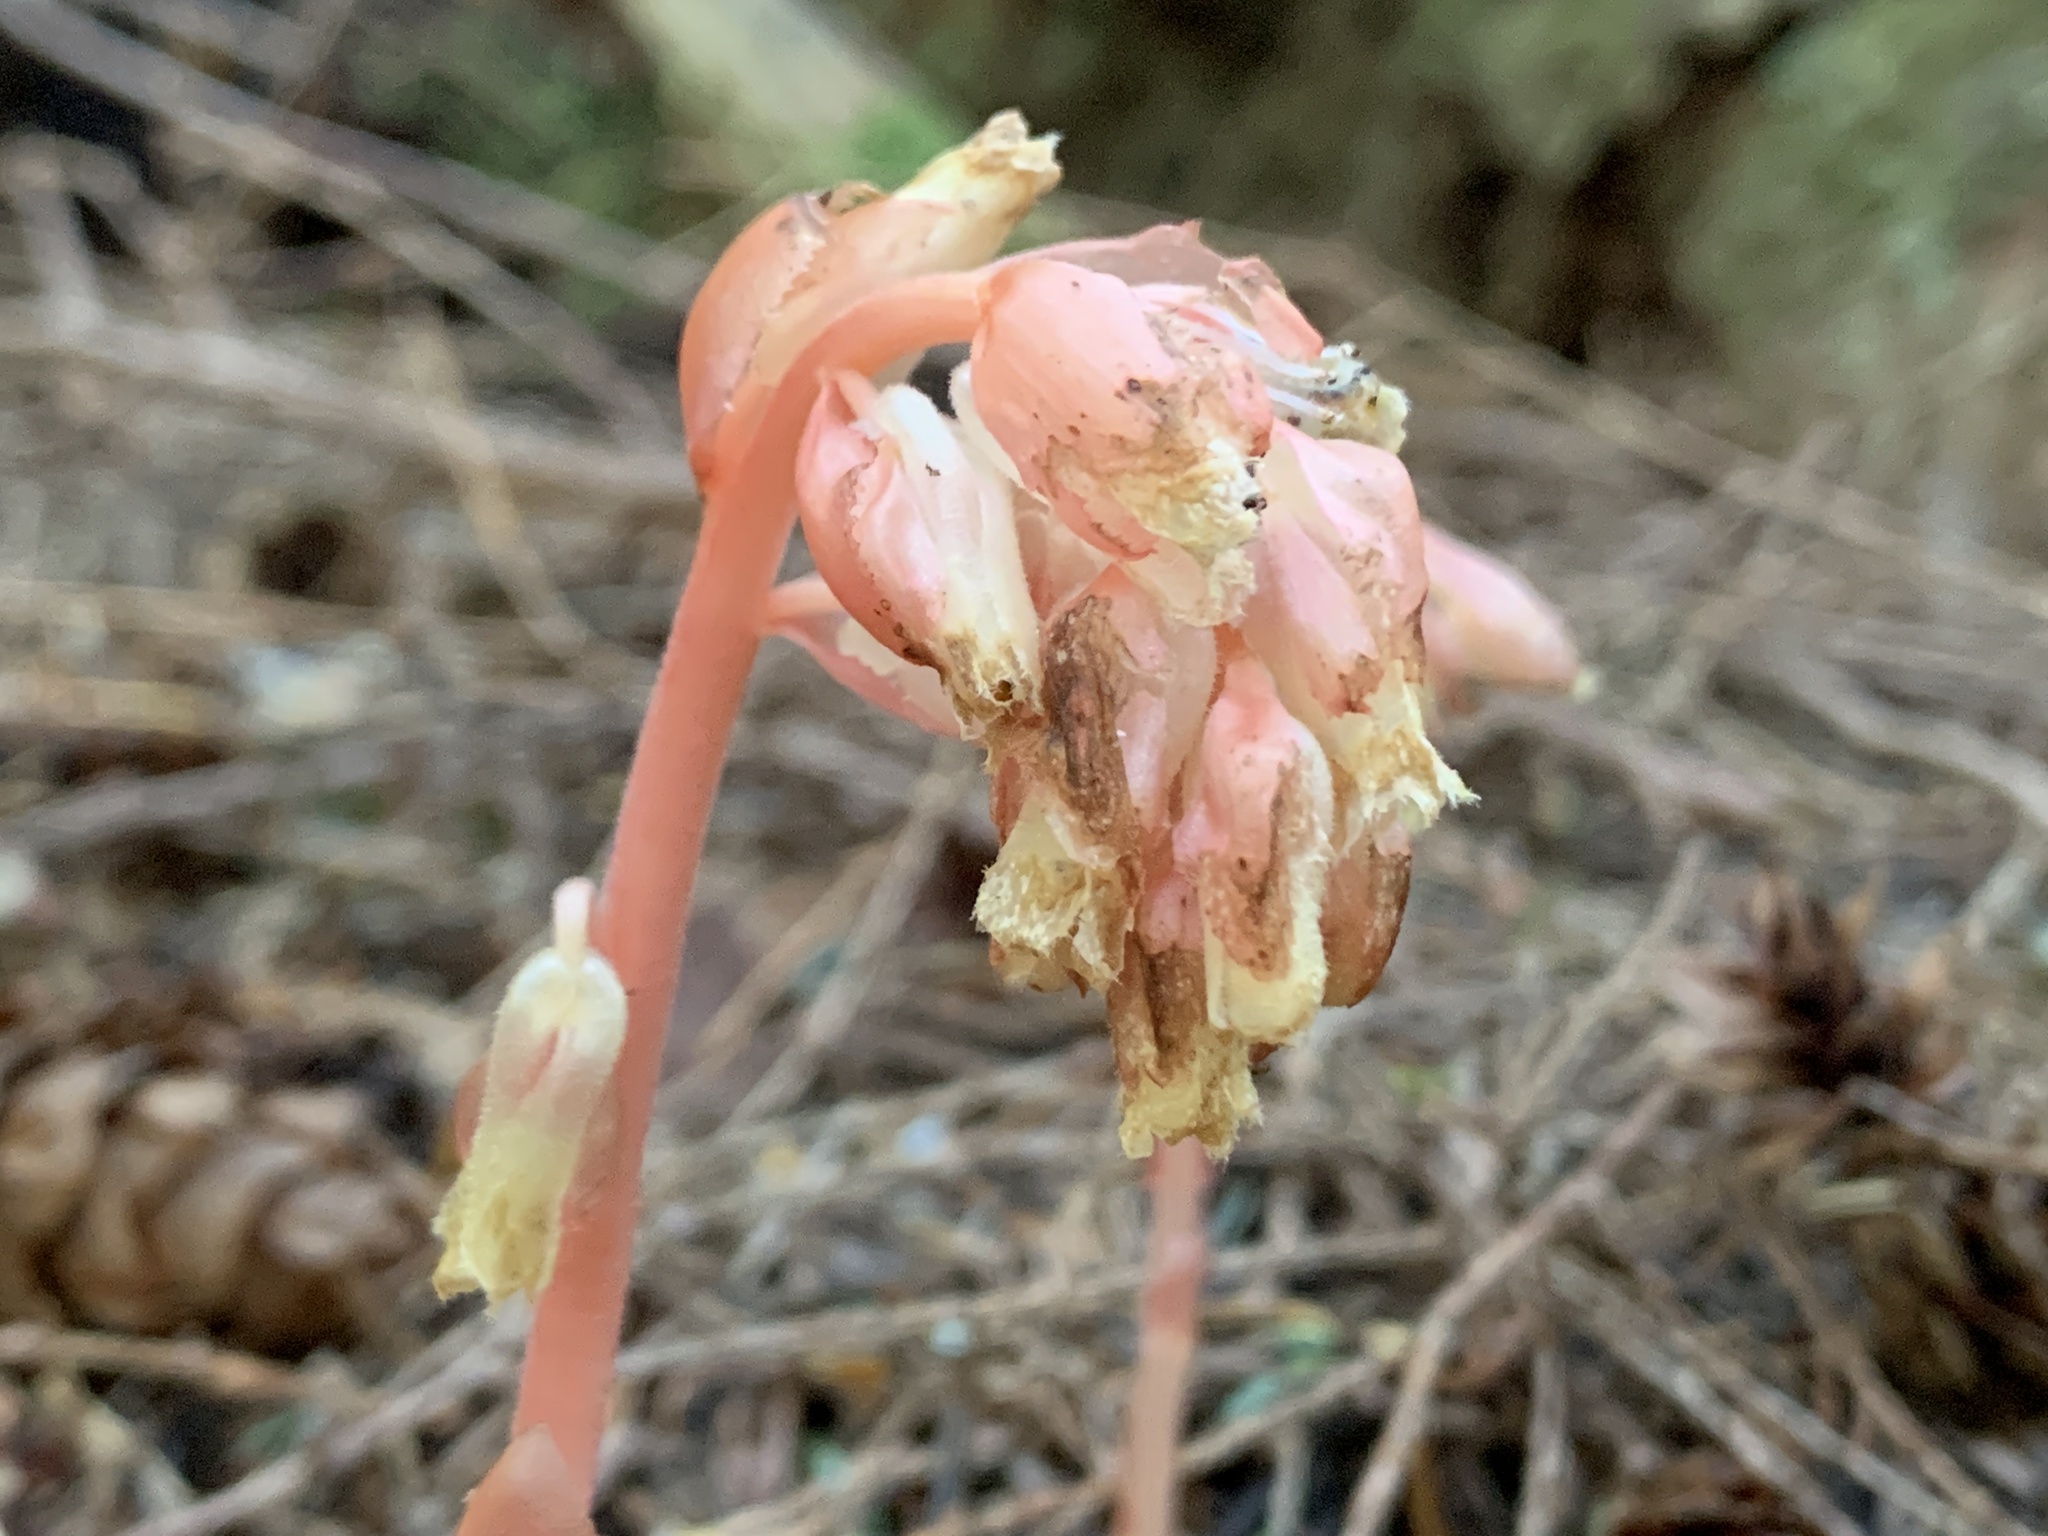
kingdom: Plantae
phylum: Tracheophyta
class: Magnoliopsida
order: Ericales
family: Ericaceae
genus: Hypopitys
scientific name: Hypopitys monotropa
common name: Yellow bird's-nest
